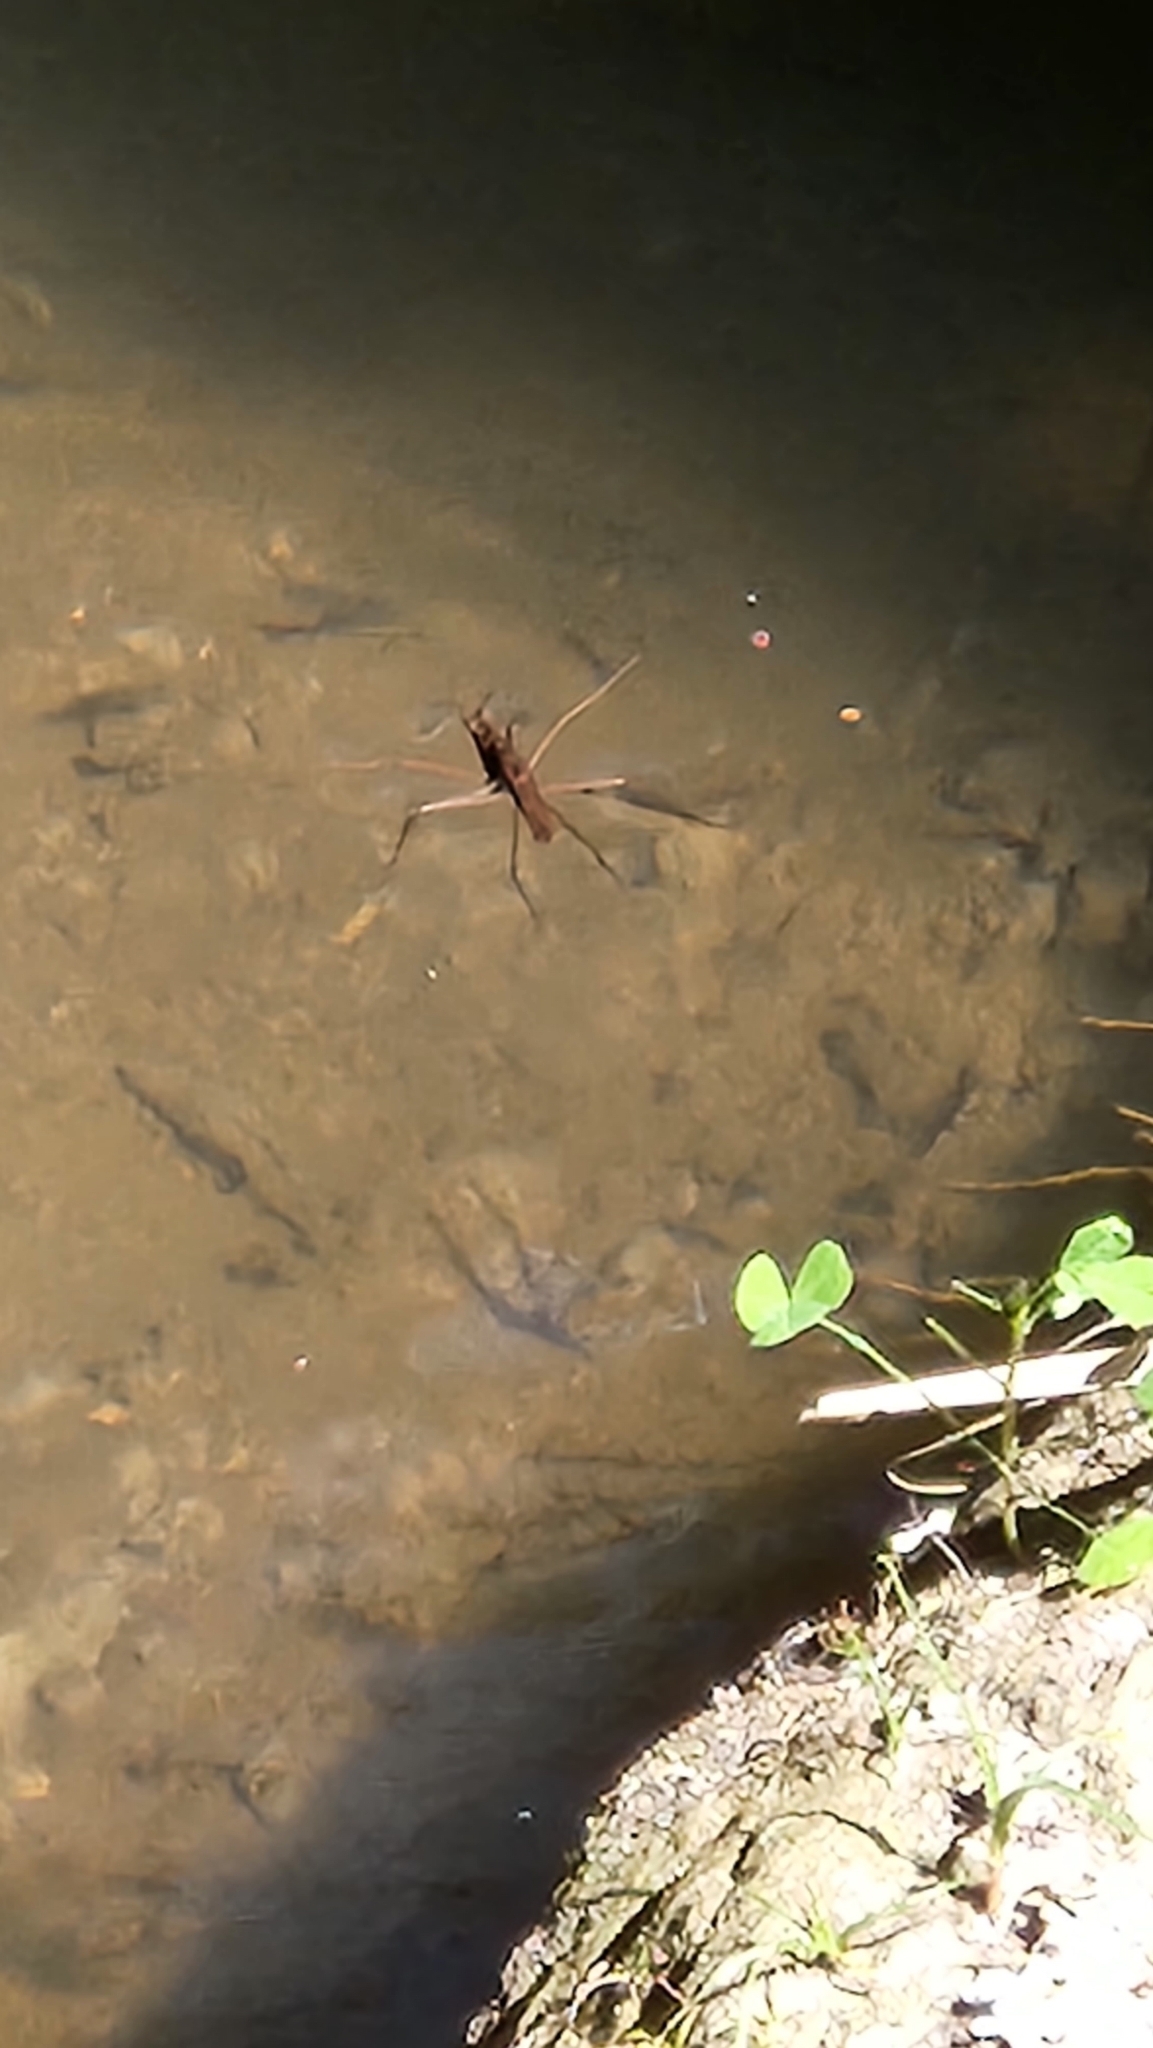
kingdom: Animalia
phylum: Arthropoda
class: Insecta
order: Hemiptera
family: Gerridae
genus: Aquarius
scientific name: Aquarius
